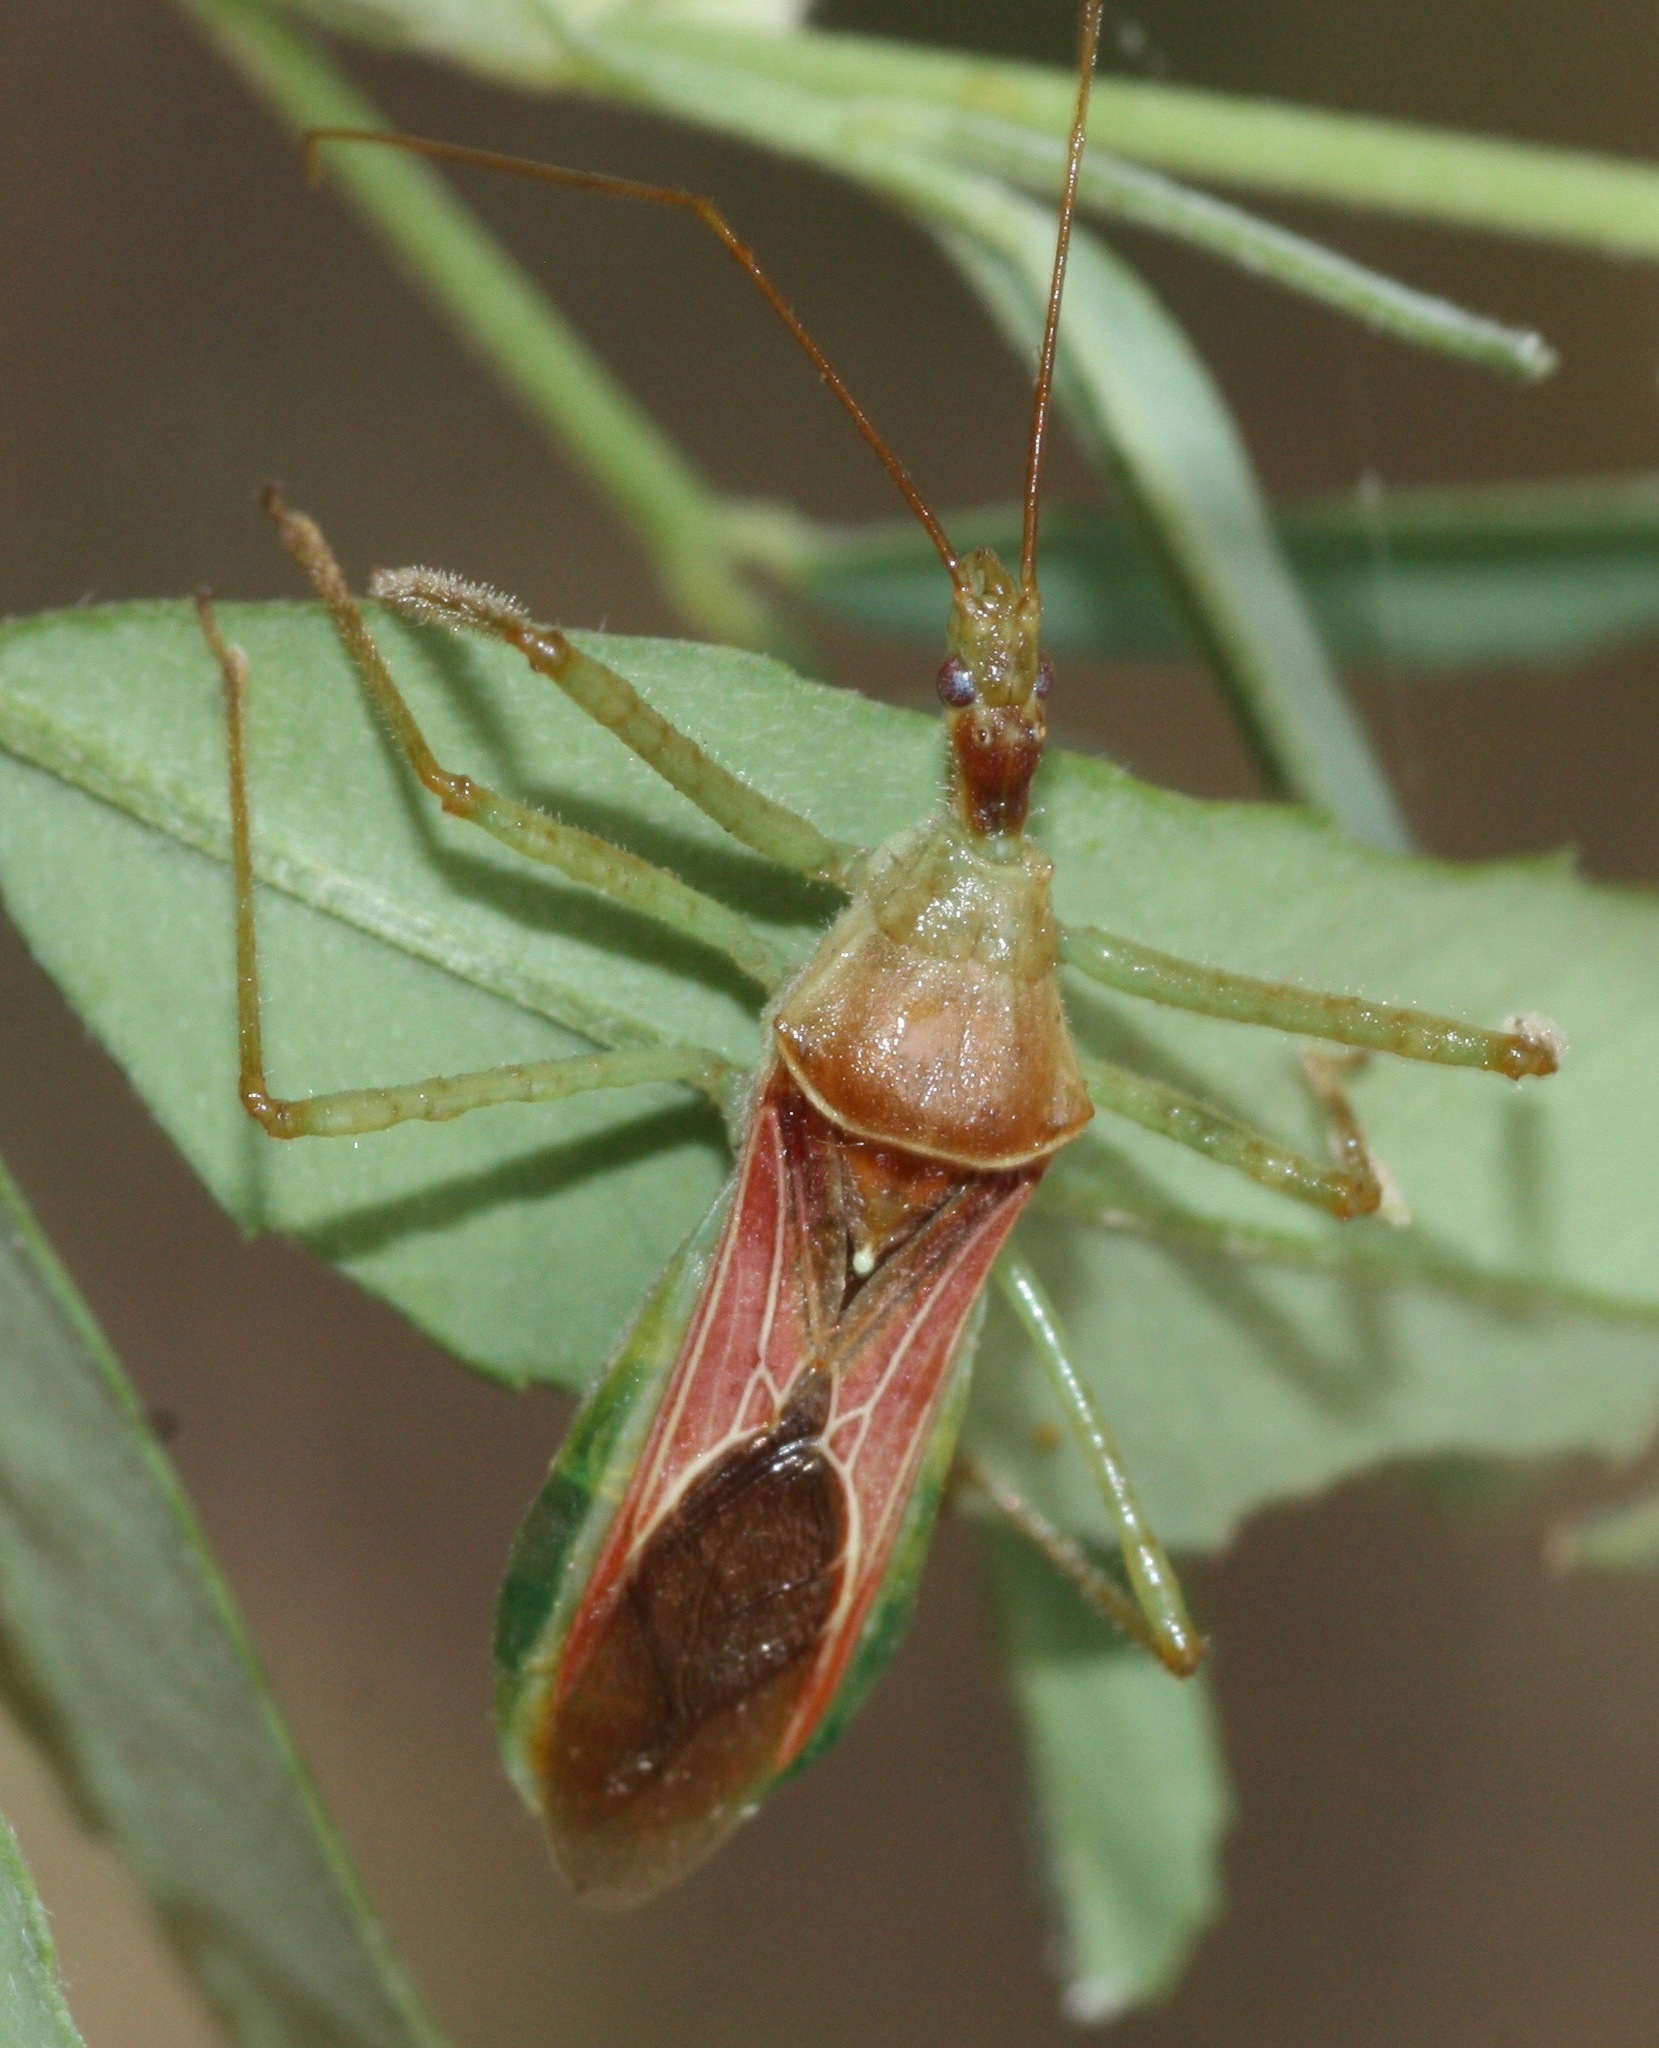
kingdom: Animalia
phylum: Arthropoda
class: Insecta
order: Hemiptera
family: Reduviidae
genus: Zelus
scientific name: Zelus renardii
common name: Assassin bug
